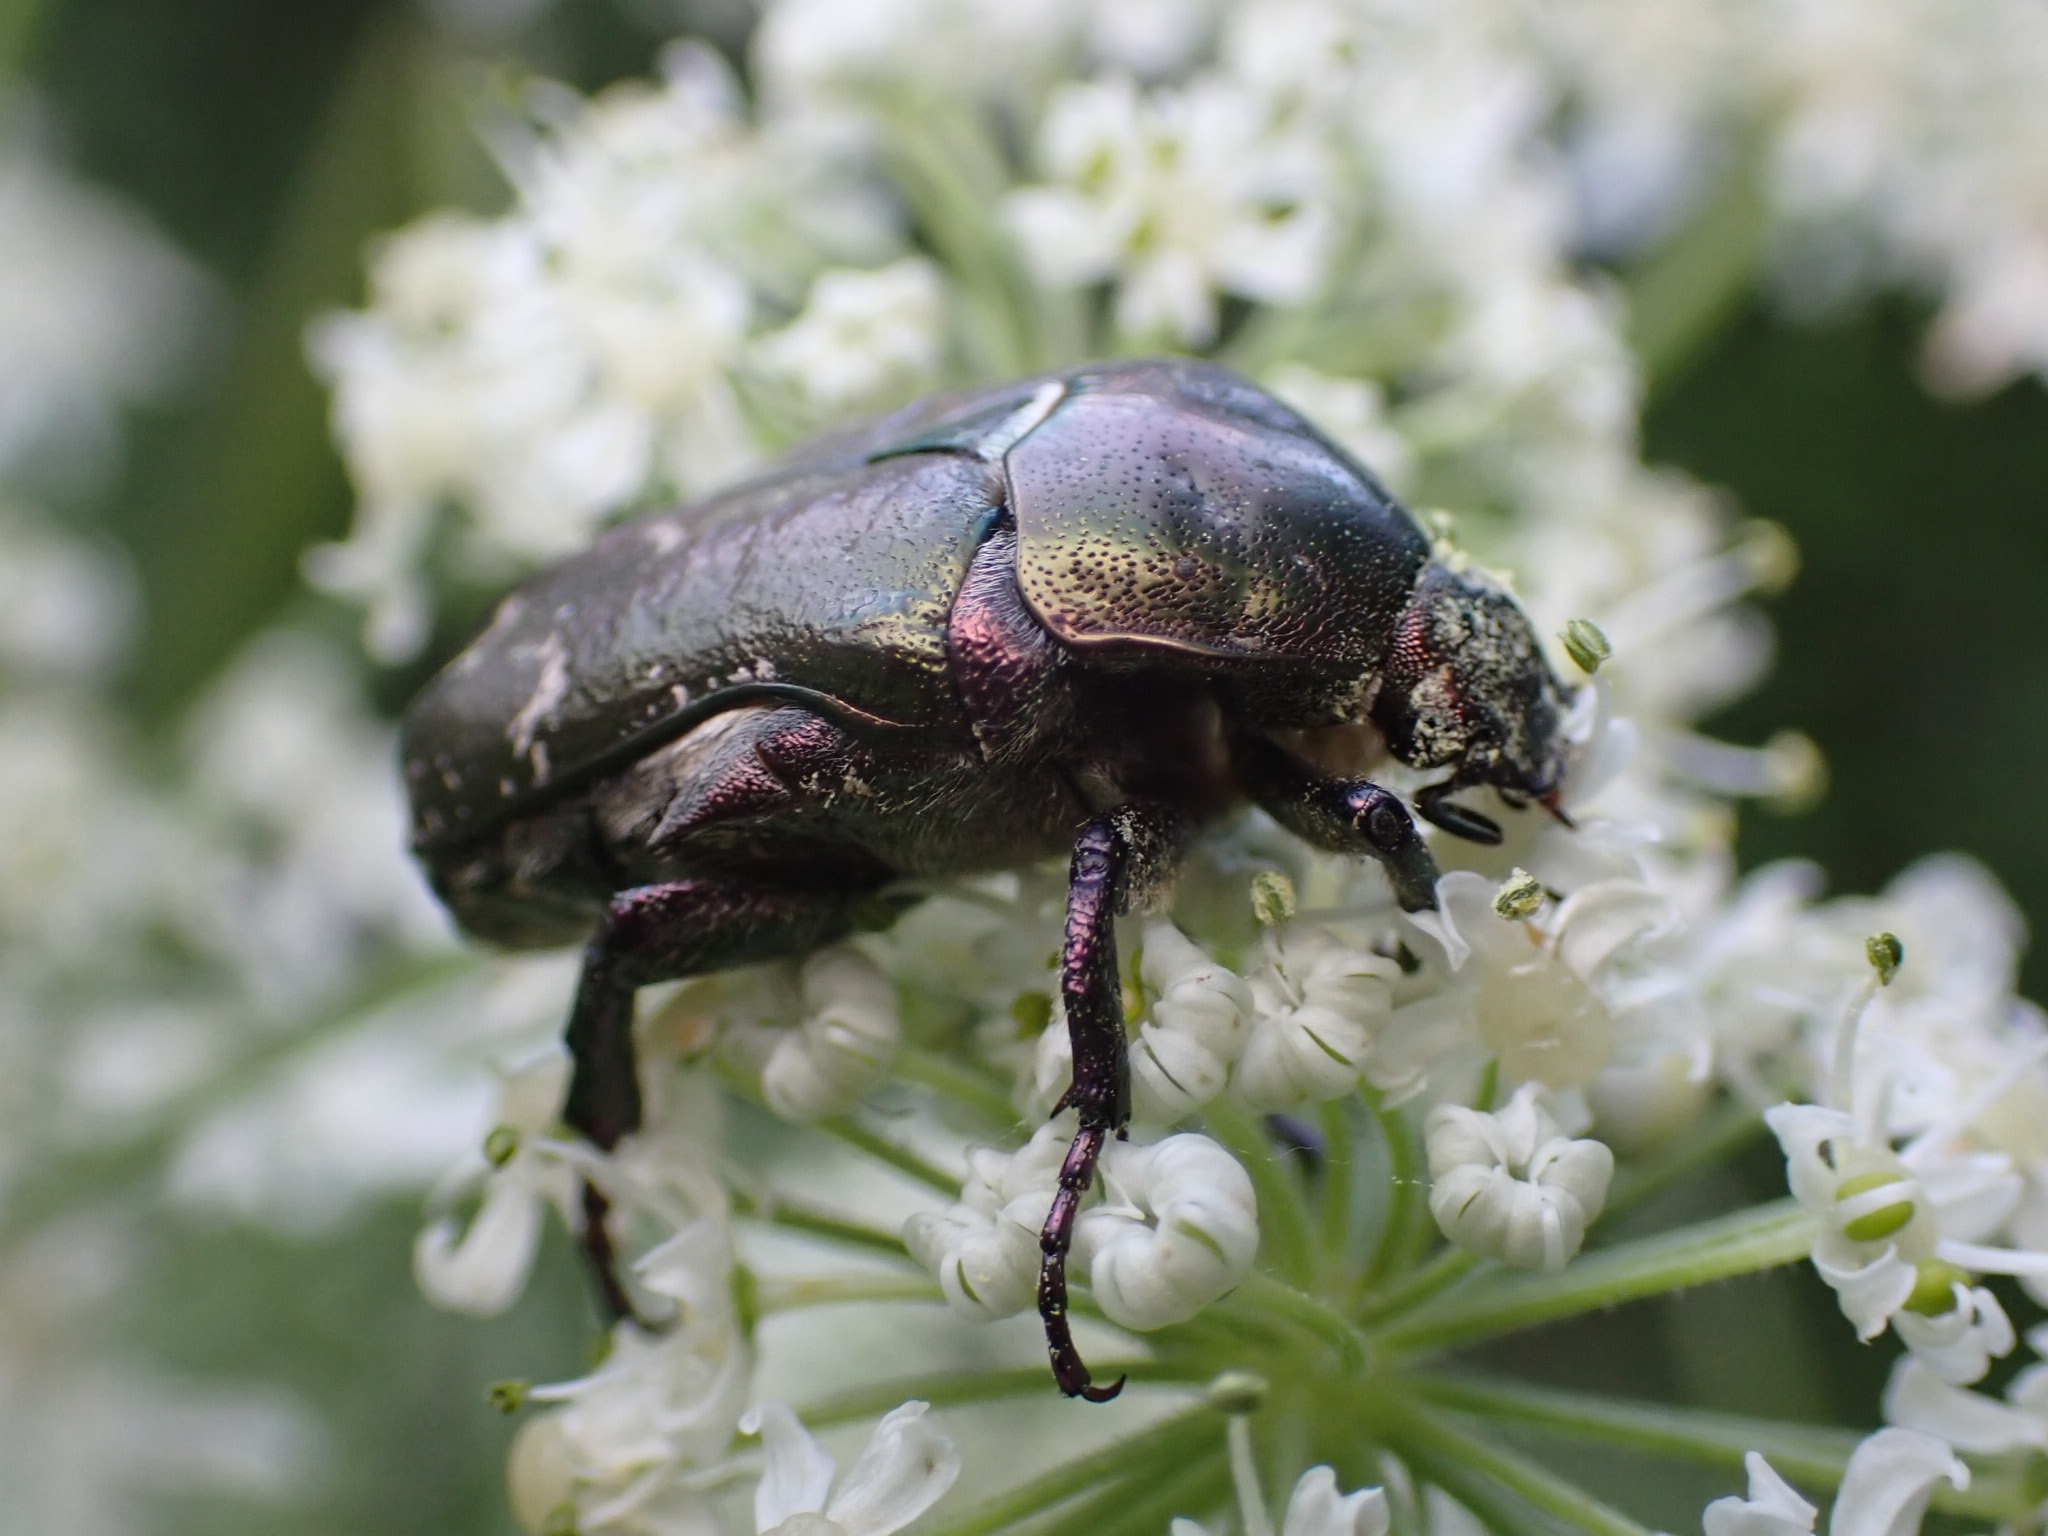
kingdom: Animalia
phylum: Arthropoda
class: Insecta
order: Coleoptera
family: Scarabaeidae
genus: Protaetia
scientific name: Protaetia cuprea
